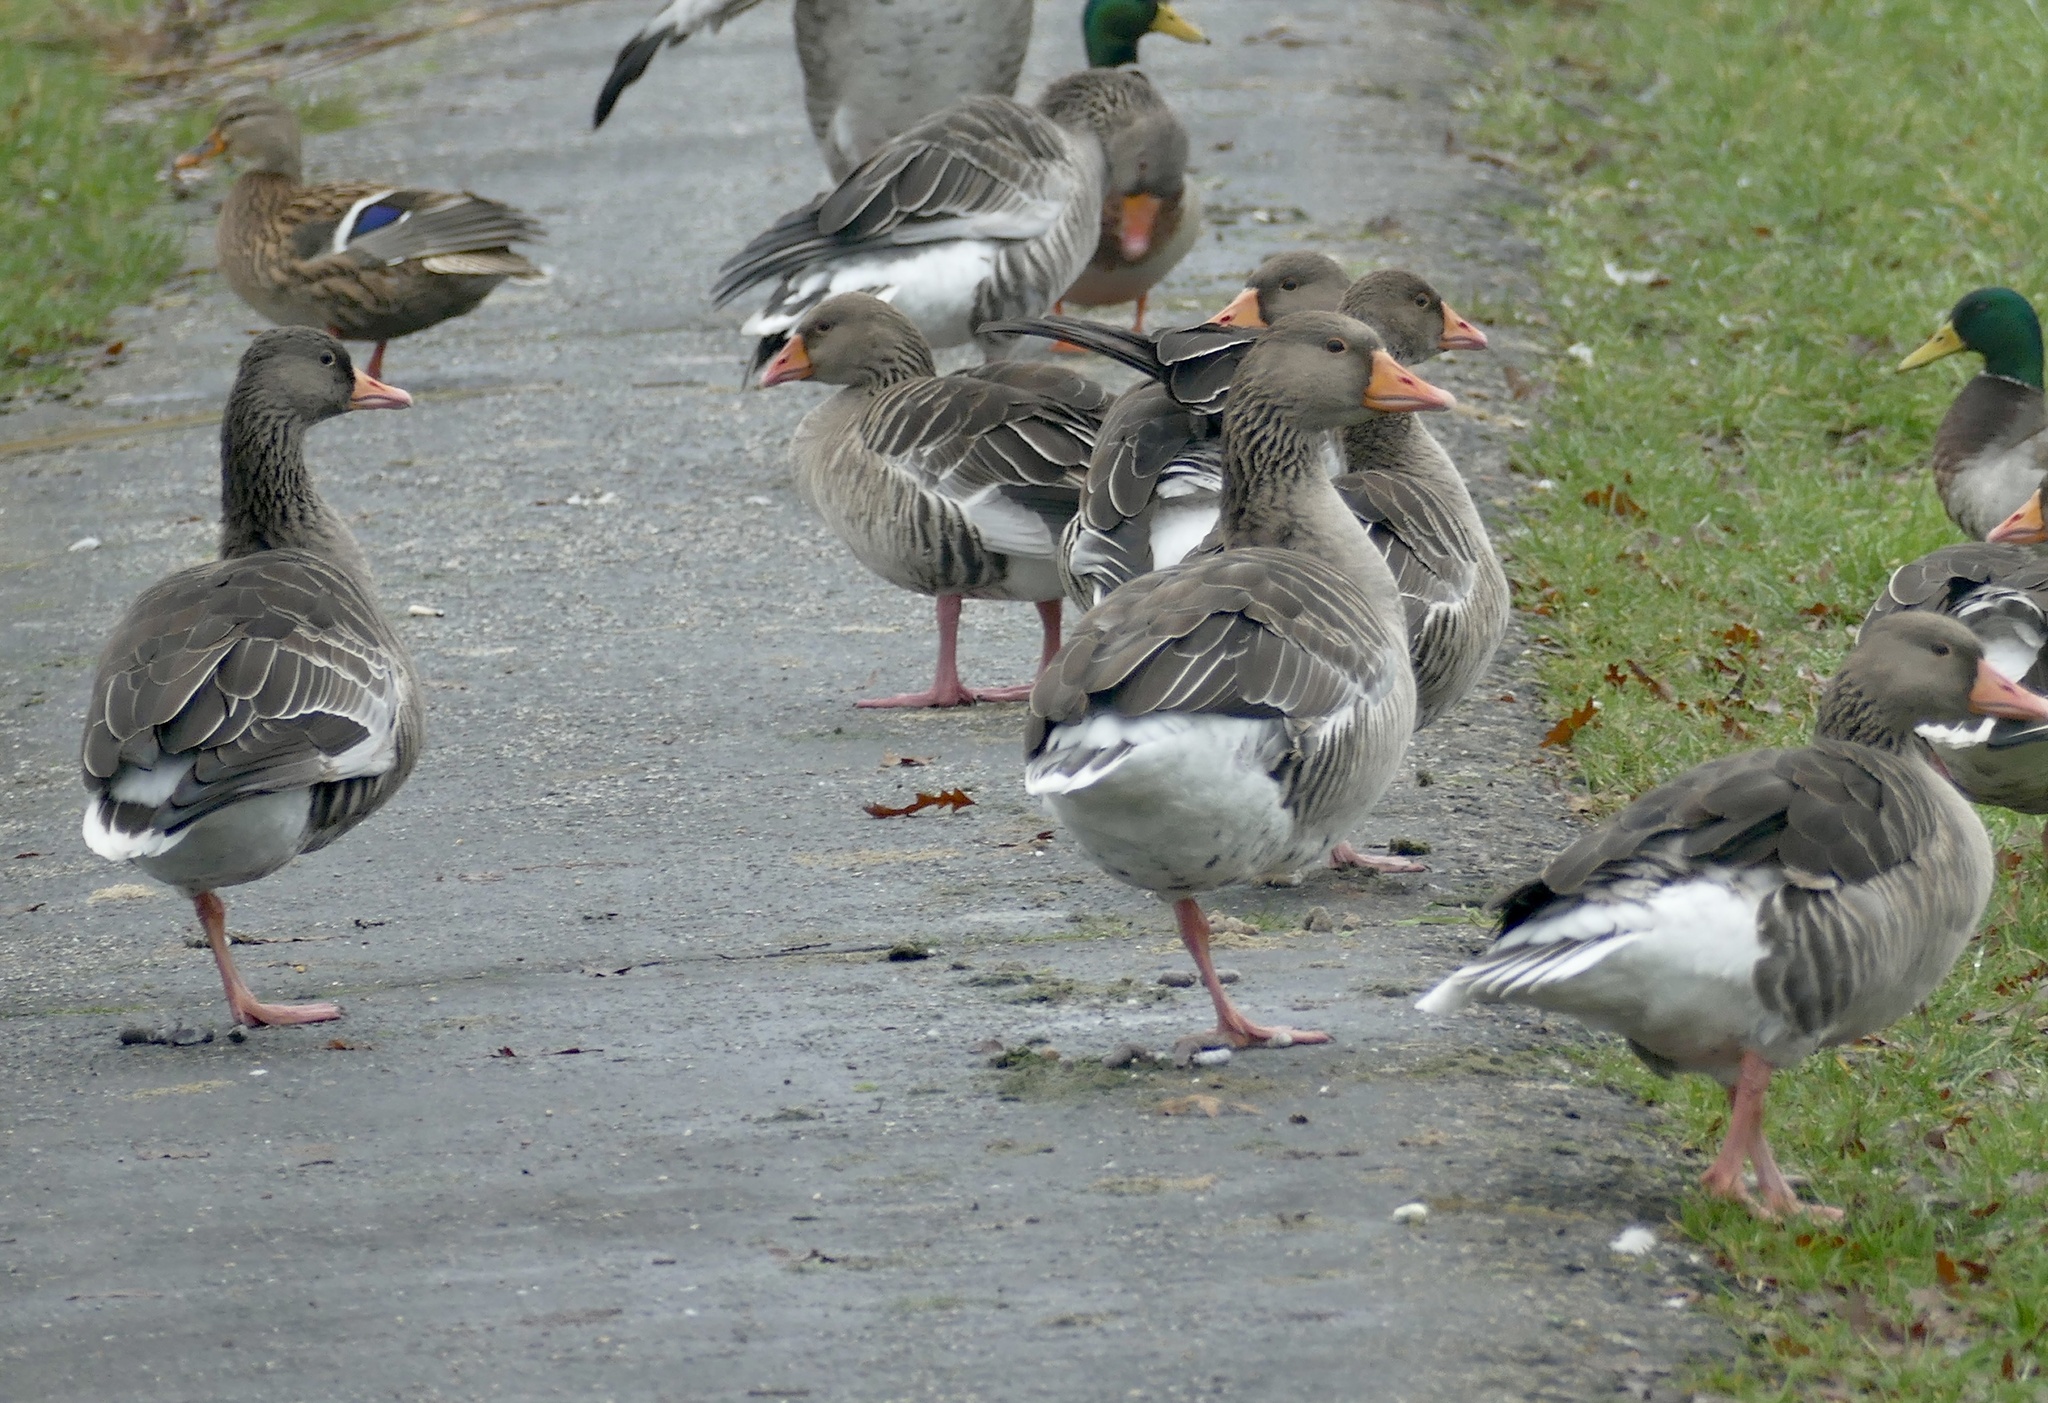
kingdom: Animalia
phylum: Chordata
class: Aves
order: Anseriformes
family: Anatidae
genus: Anser
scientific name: Anser anser
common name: Greylag goose
